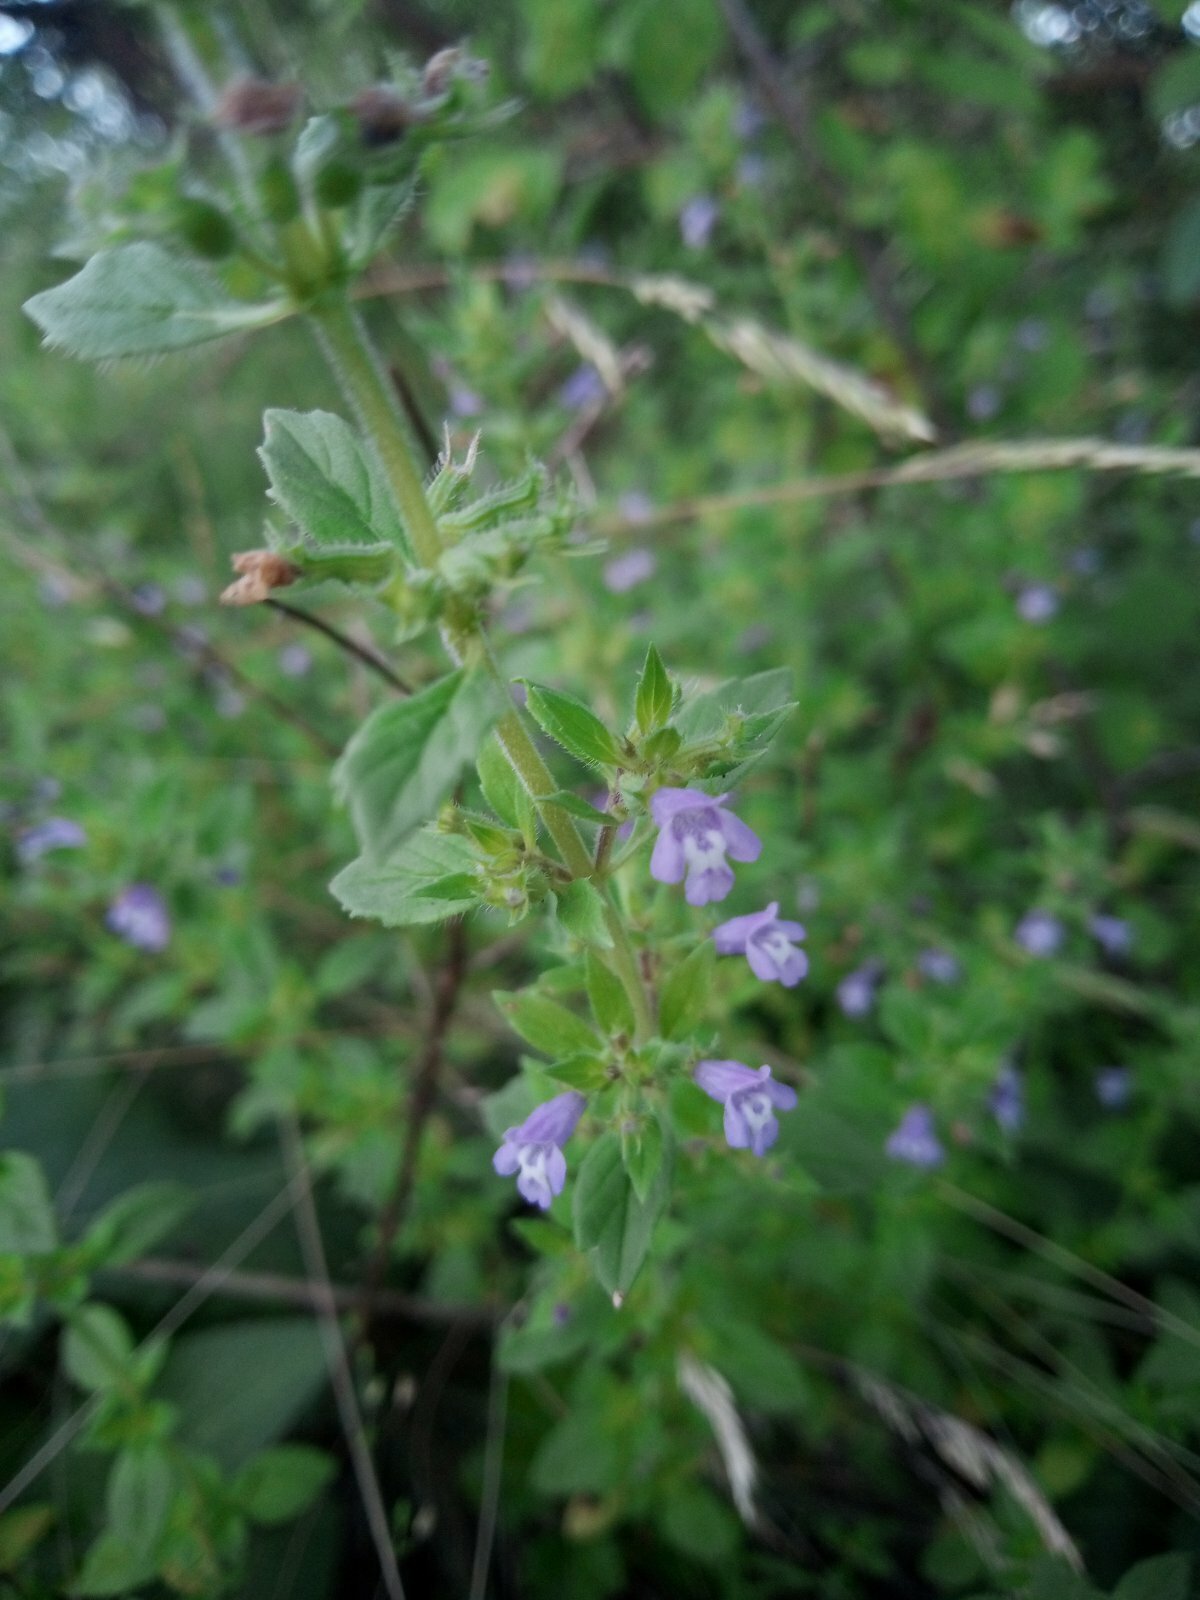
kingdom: Plantae
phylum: Tracheophyta
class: Magnoliopsida
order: Lamiales
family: Lamiaceae
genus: Clinopodium
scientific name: Clinopodium acinos
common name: Basil thyme
